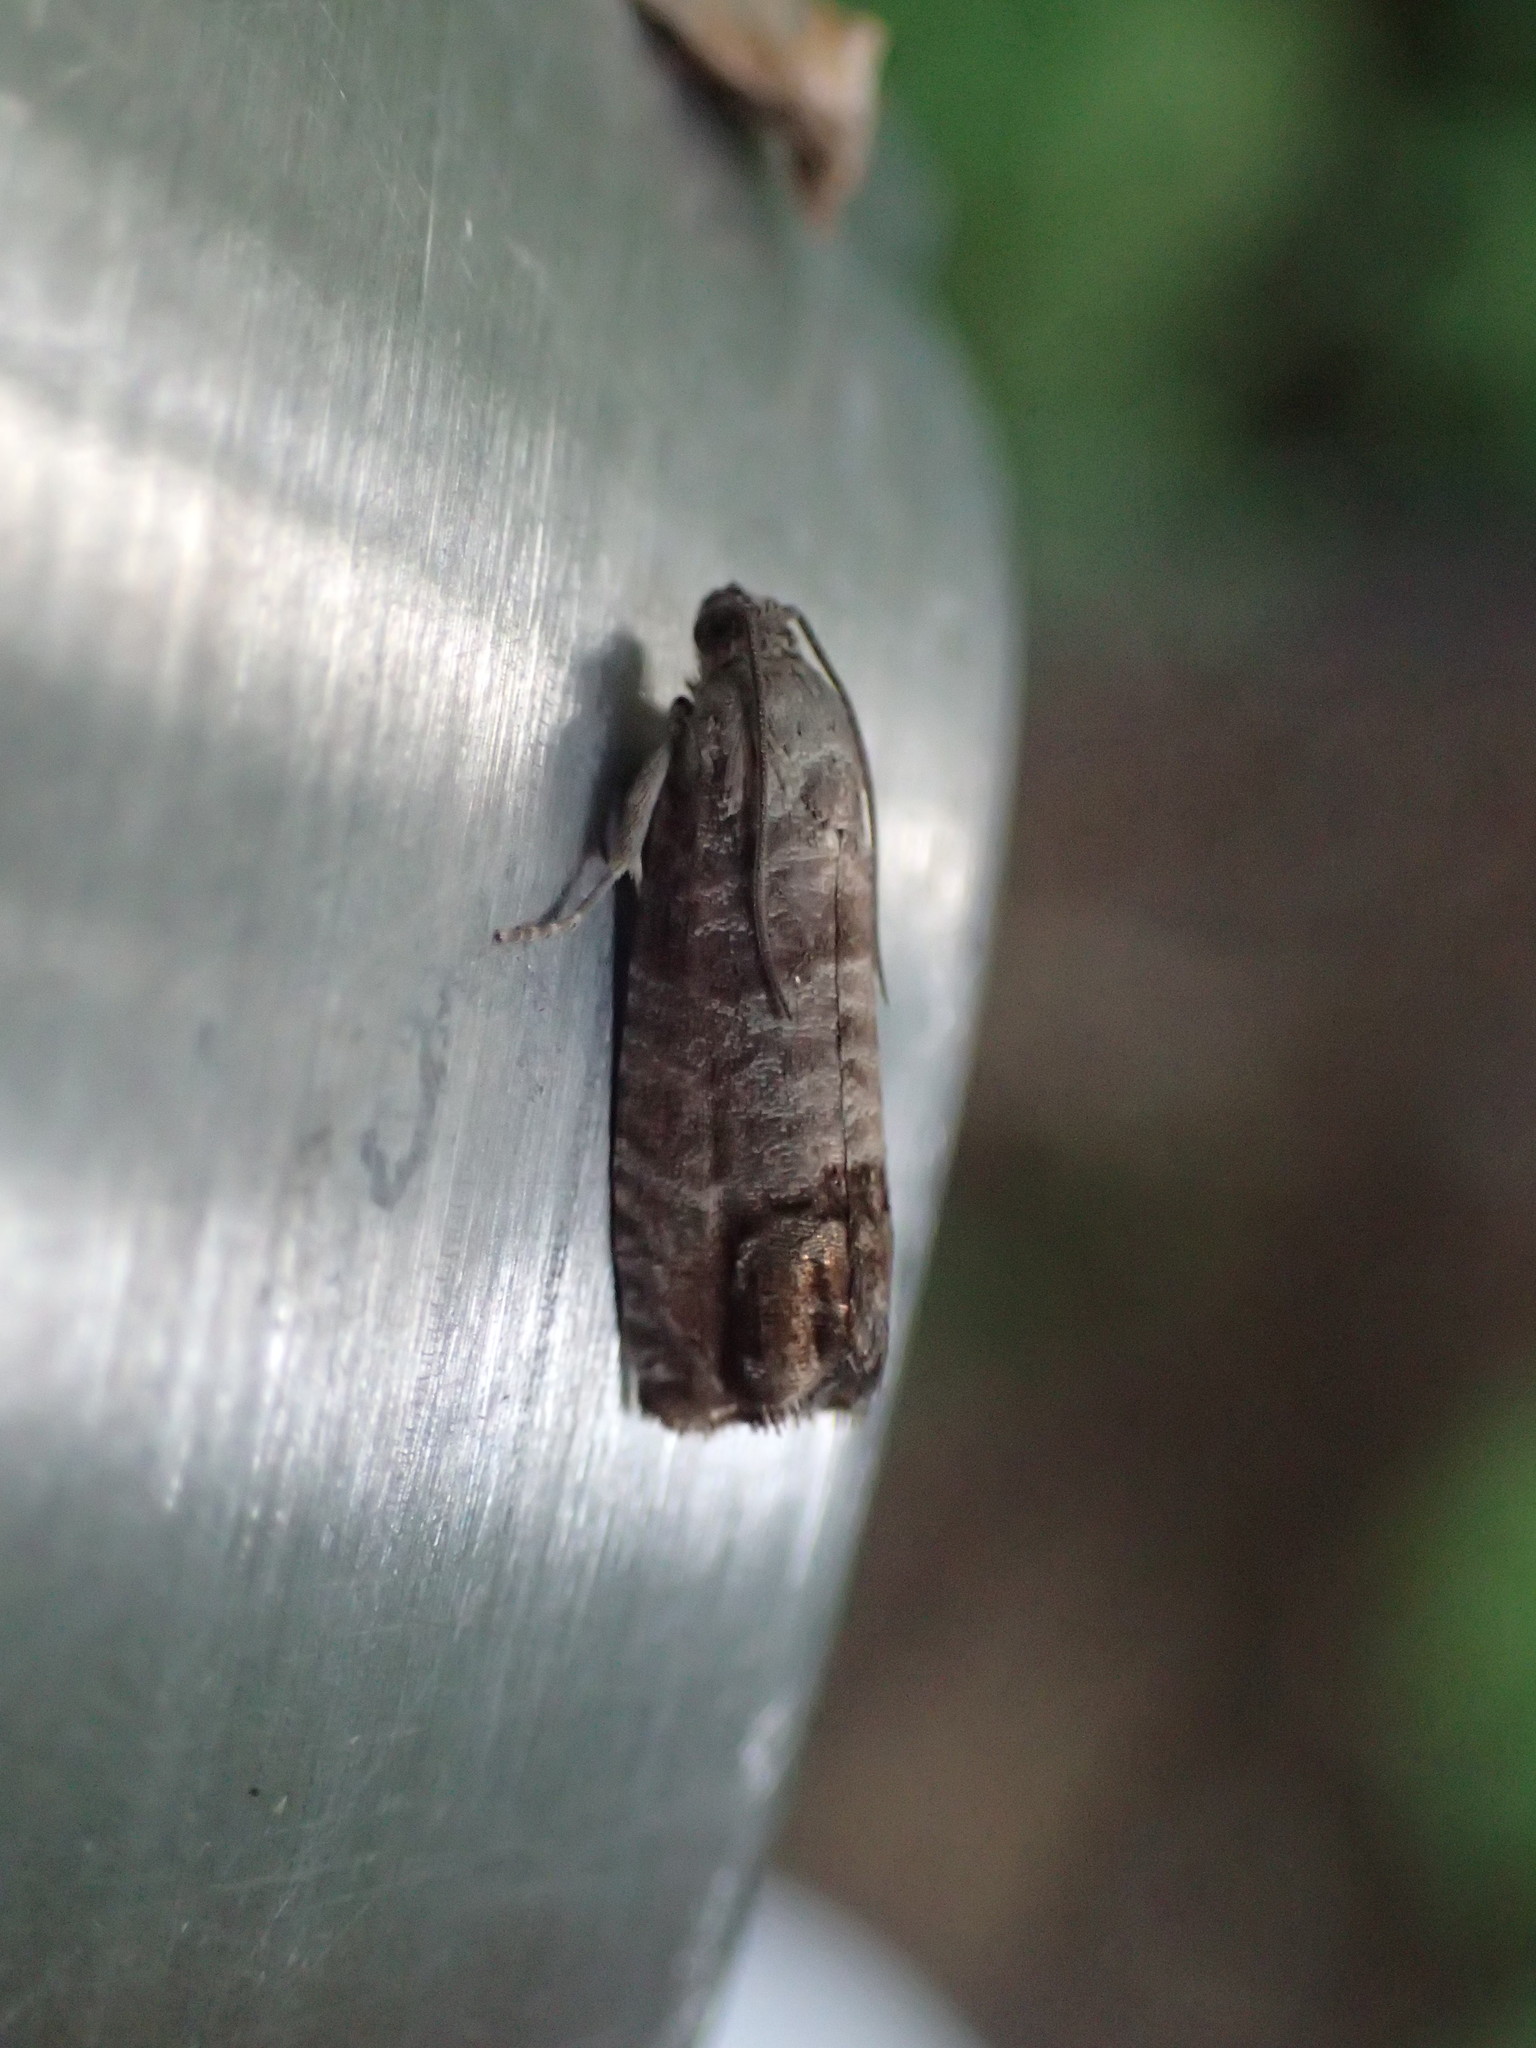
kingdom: Animalia
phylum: Arthropoda
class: Insecta
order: Lepidoptera
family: Tortricidae
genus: Cydia
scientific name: Cydia pomonella
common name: Codling moth
